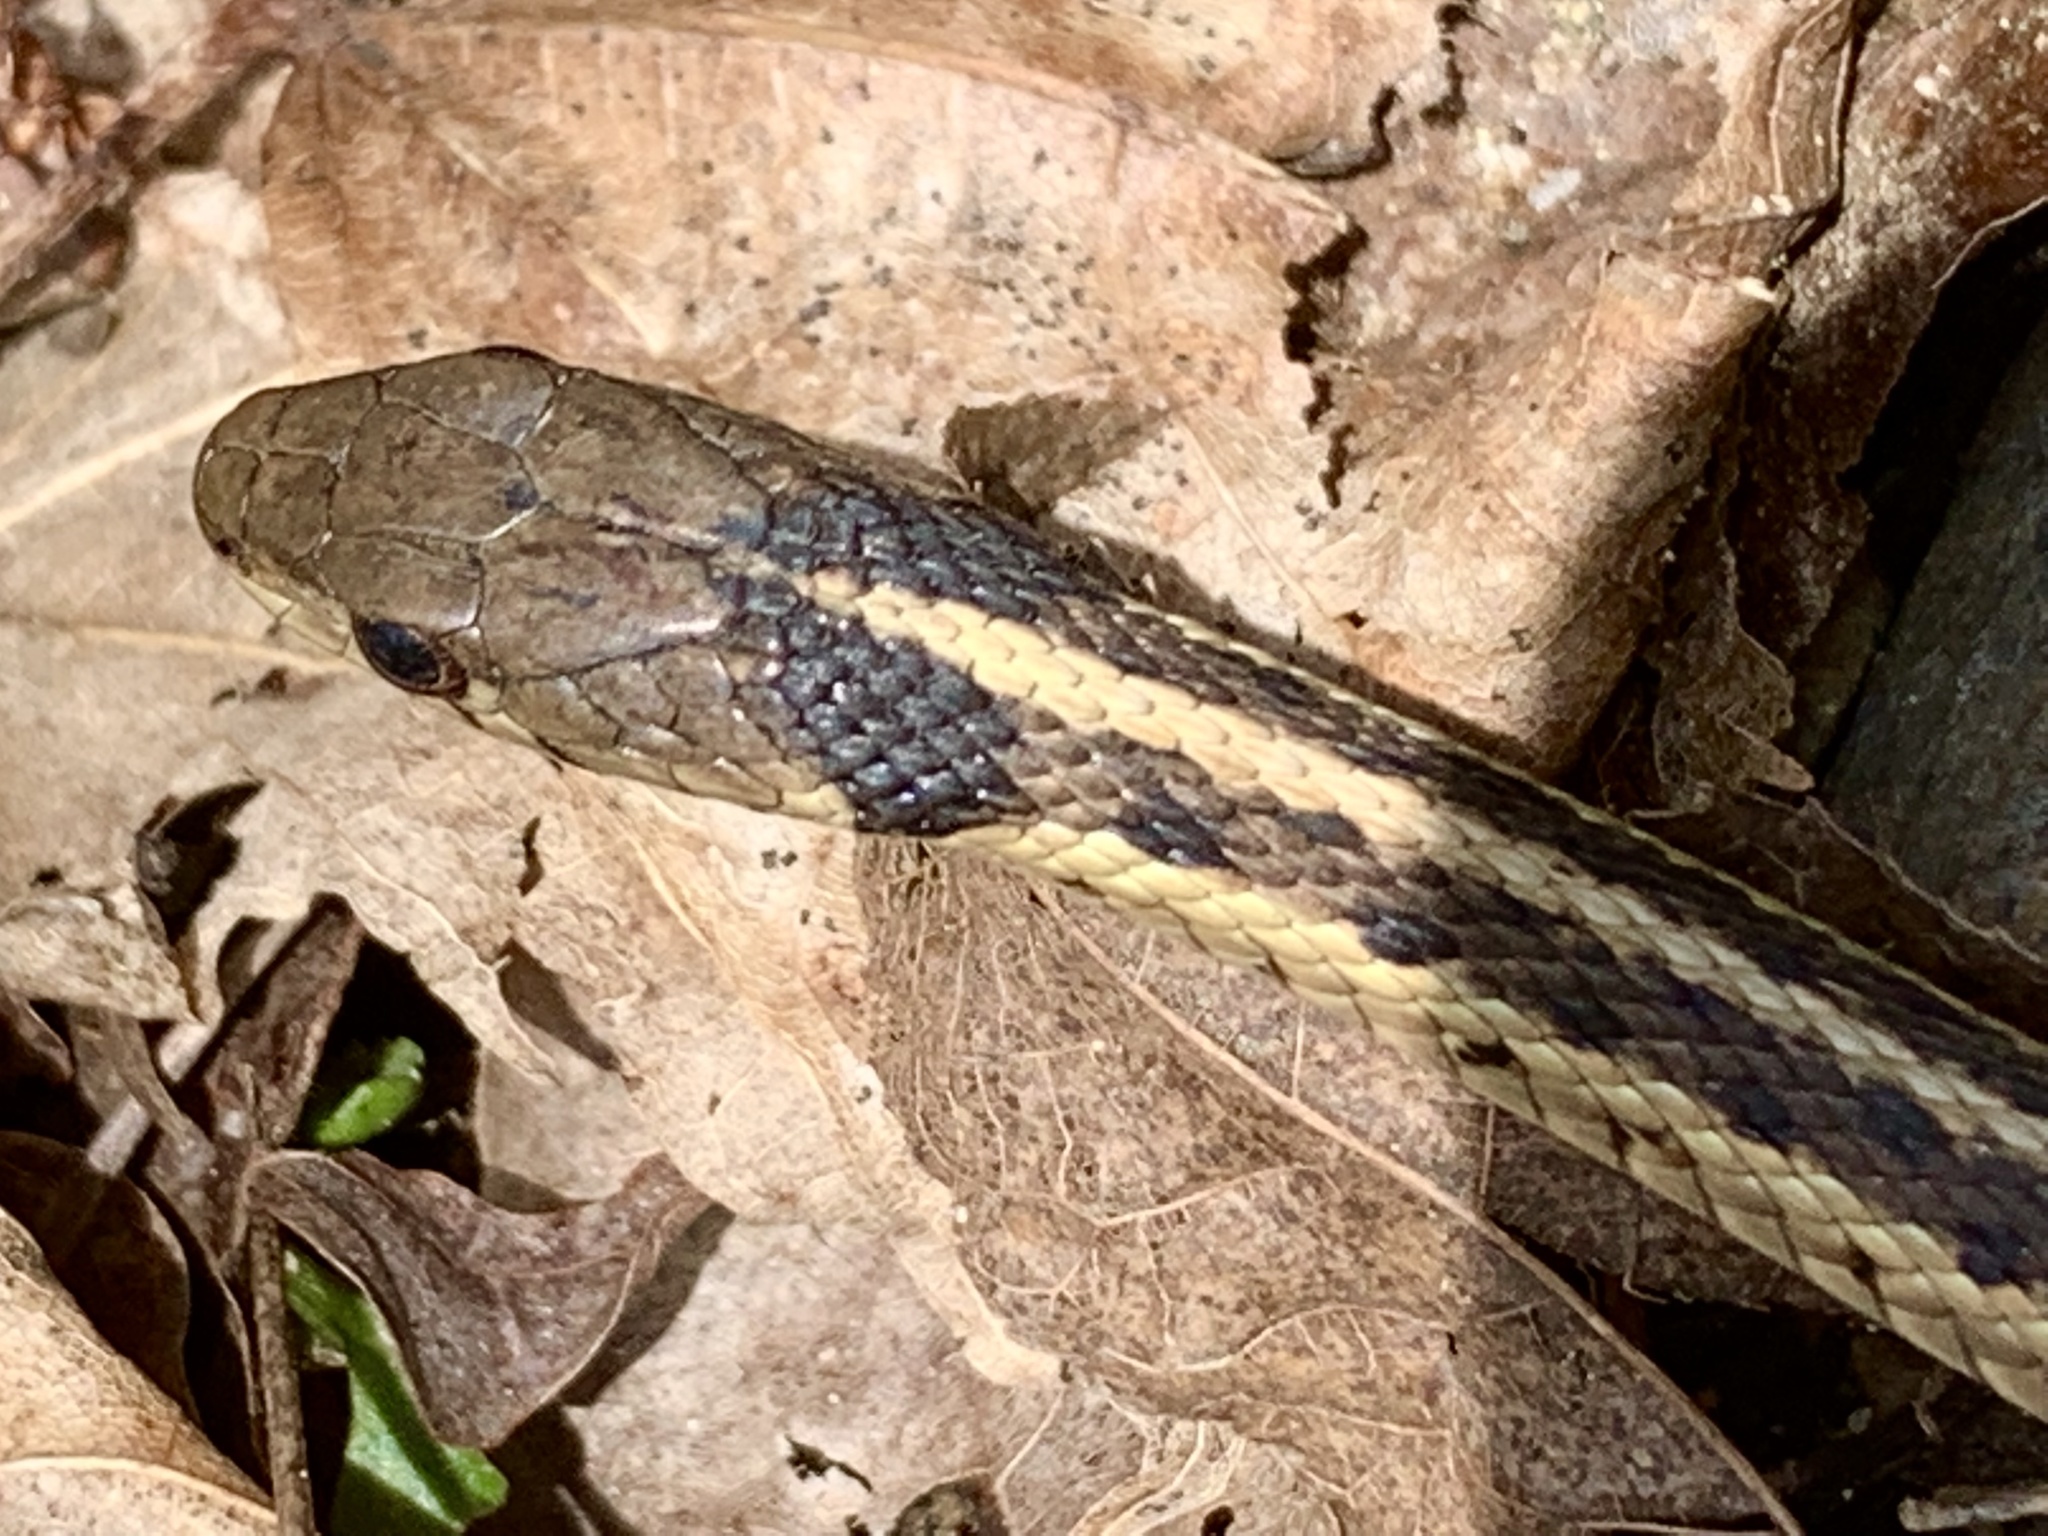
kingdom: Animalia
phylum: Chordata
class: Squamata
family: Colubridae
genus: Thamnophis
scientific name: Thamnophis sirtalis
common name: Common garter snake
